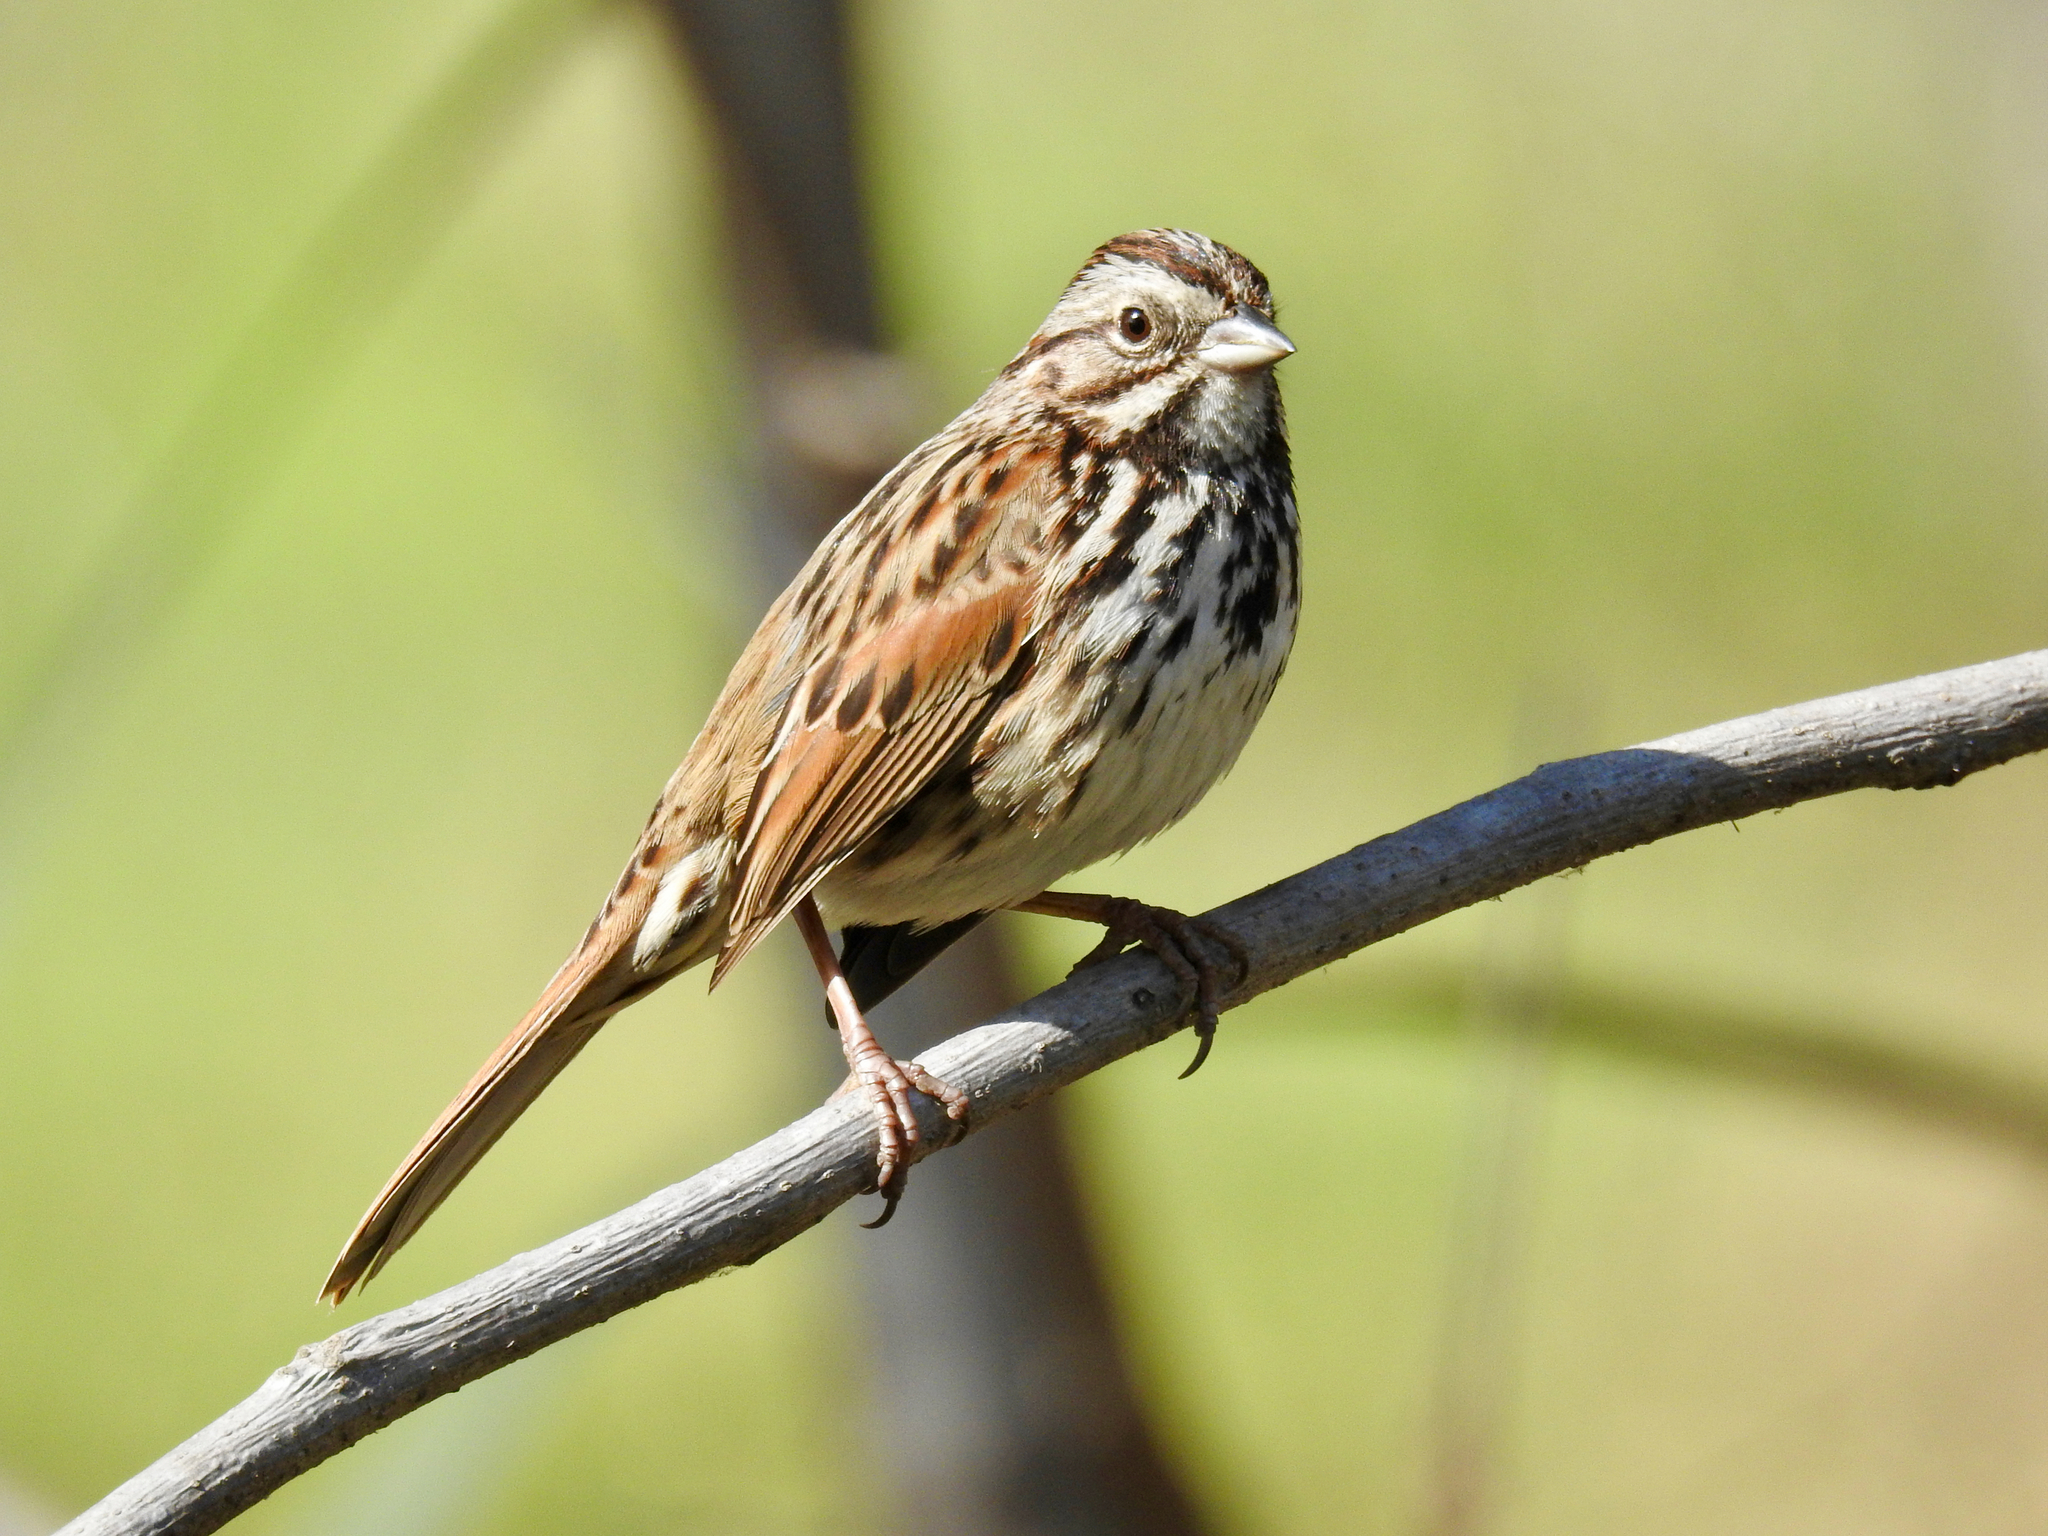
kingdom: Animalia
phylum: Chordata
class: Aves
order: Passeriformes
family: Passerellidae
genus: Melospiza
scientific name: Melospiza melodia
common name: Song sparrow
